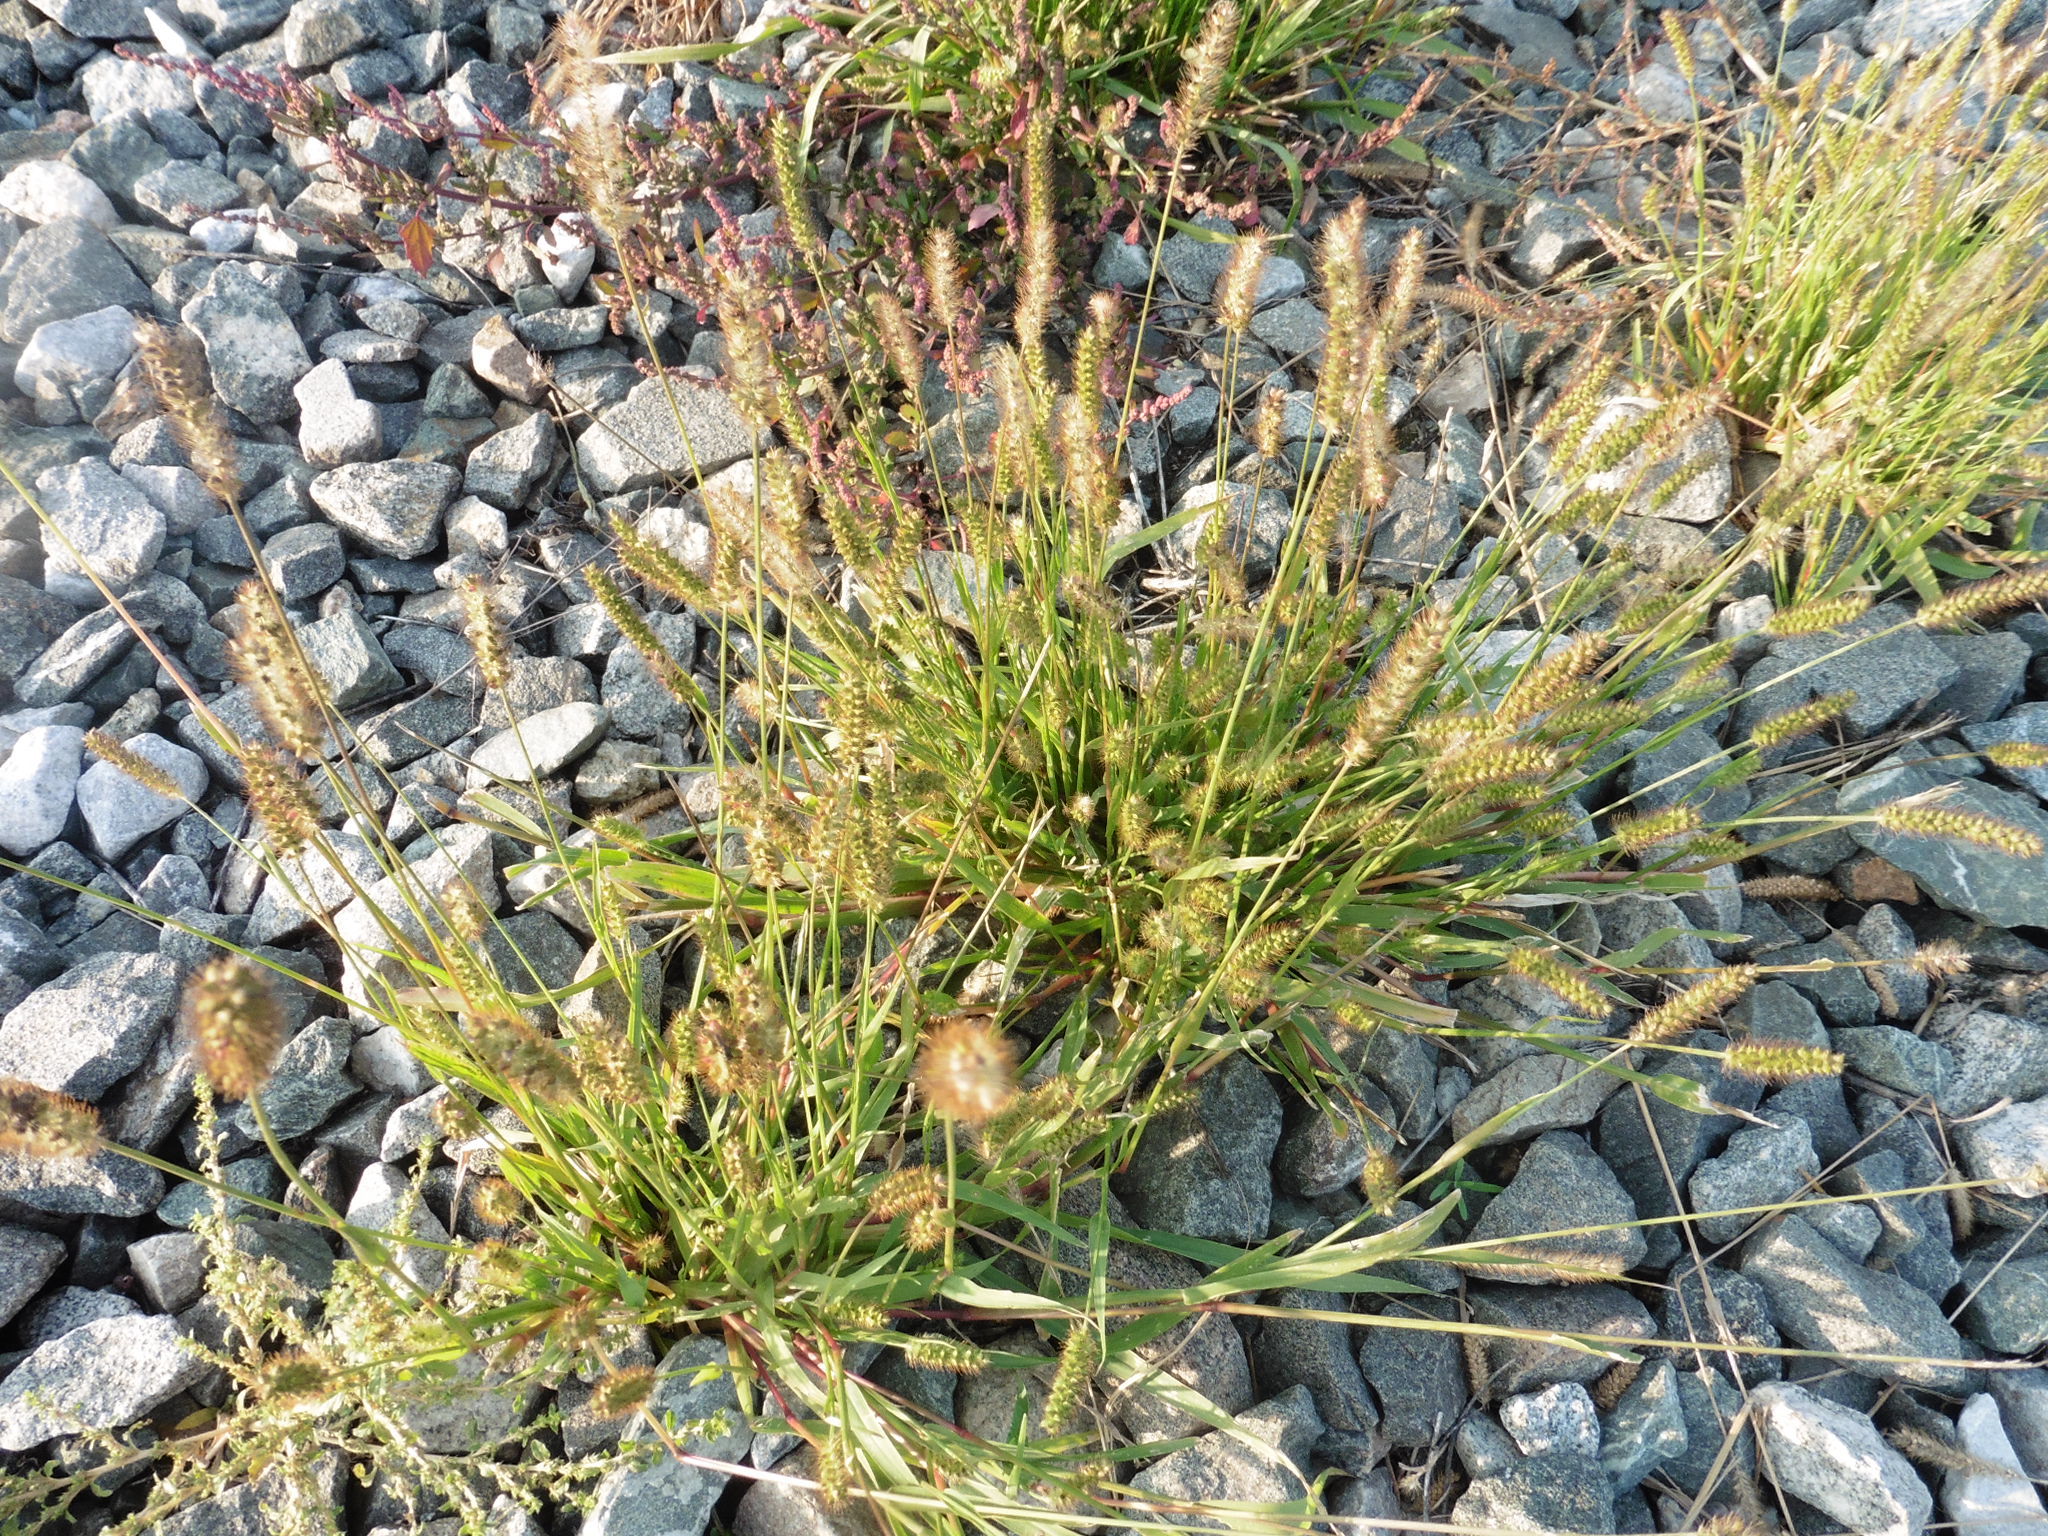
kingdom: Plantae
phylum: Tracheophyta
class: Liliopsida
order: Poales
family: Poaceae
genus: Setaria
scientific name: Setaria pumila
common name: Yellow bristle-grass
